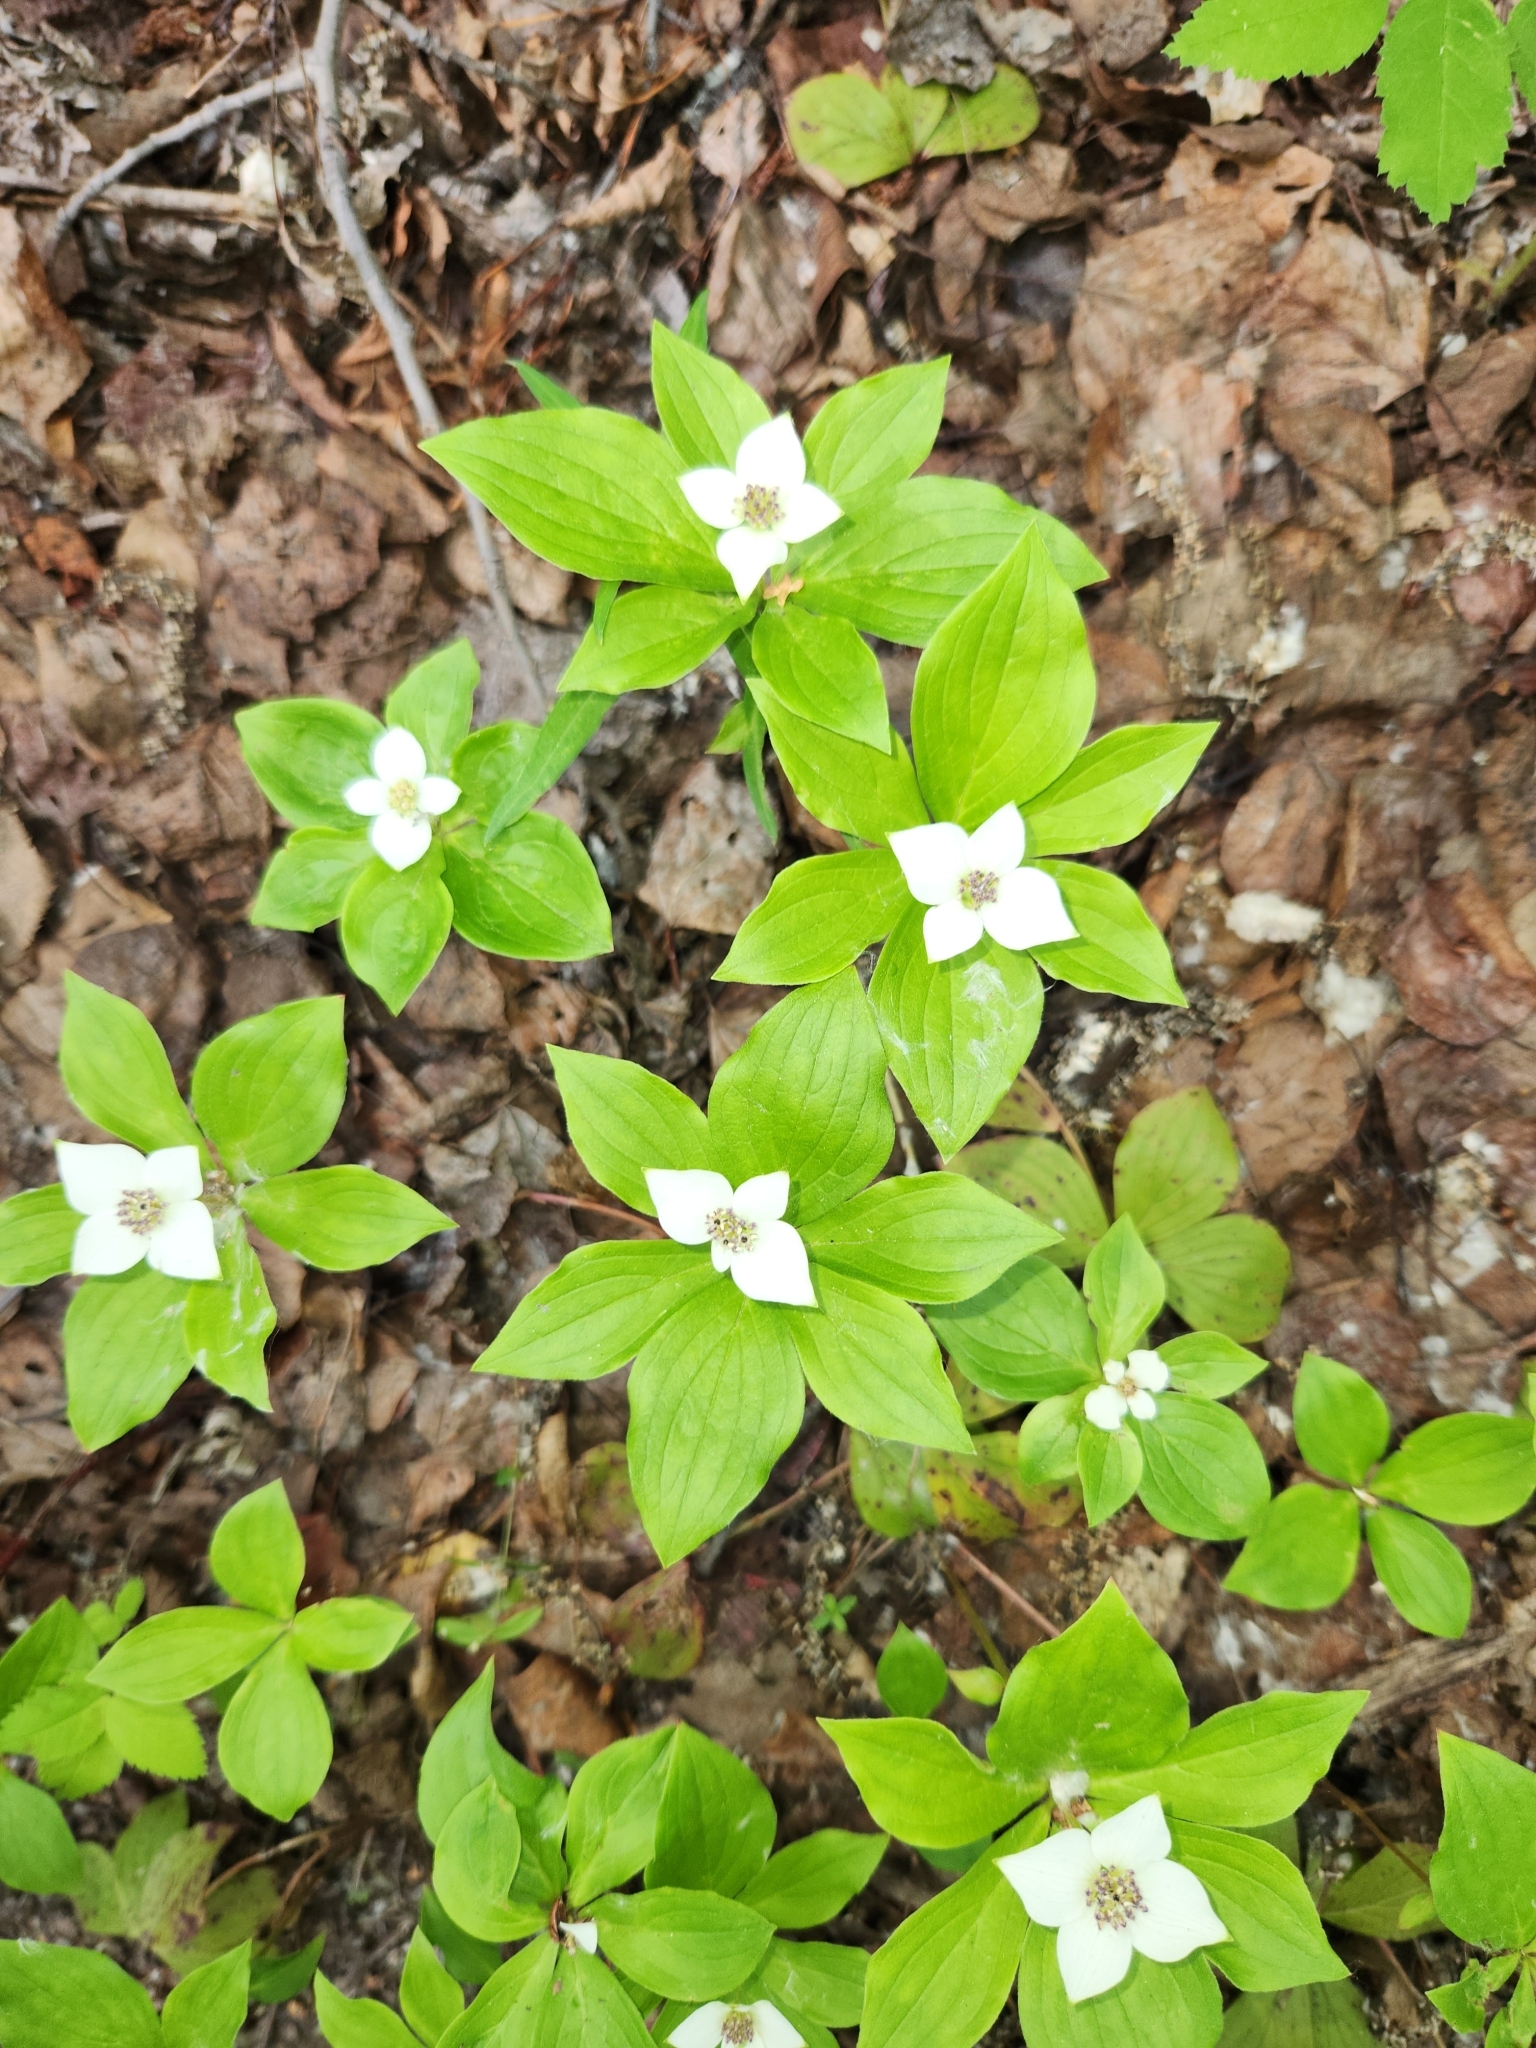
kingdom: Plantae
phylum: Tracheophyta
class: Magnoliopsida
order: Cornales
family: Cornaceae
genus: Cornus
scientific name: Cornus canadensis
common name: Creeping dogwood
